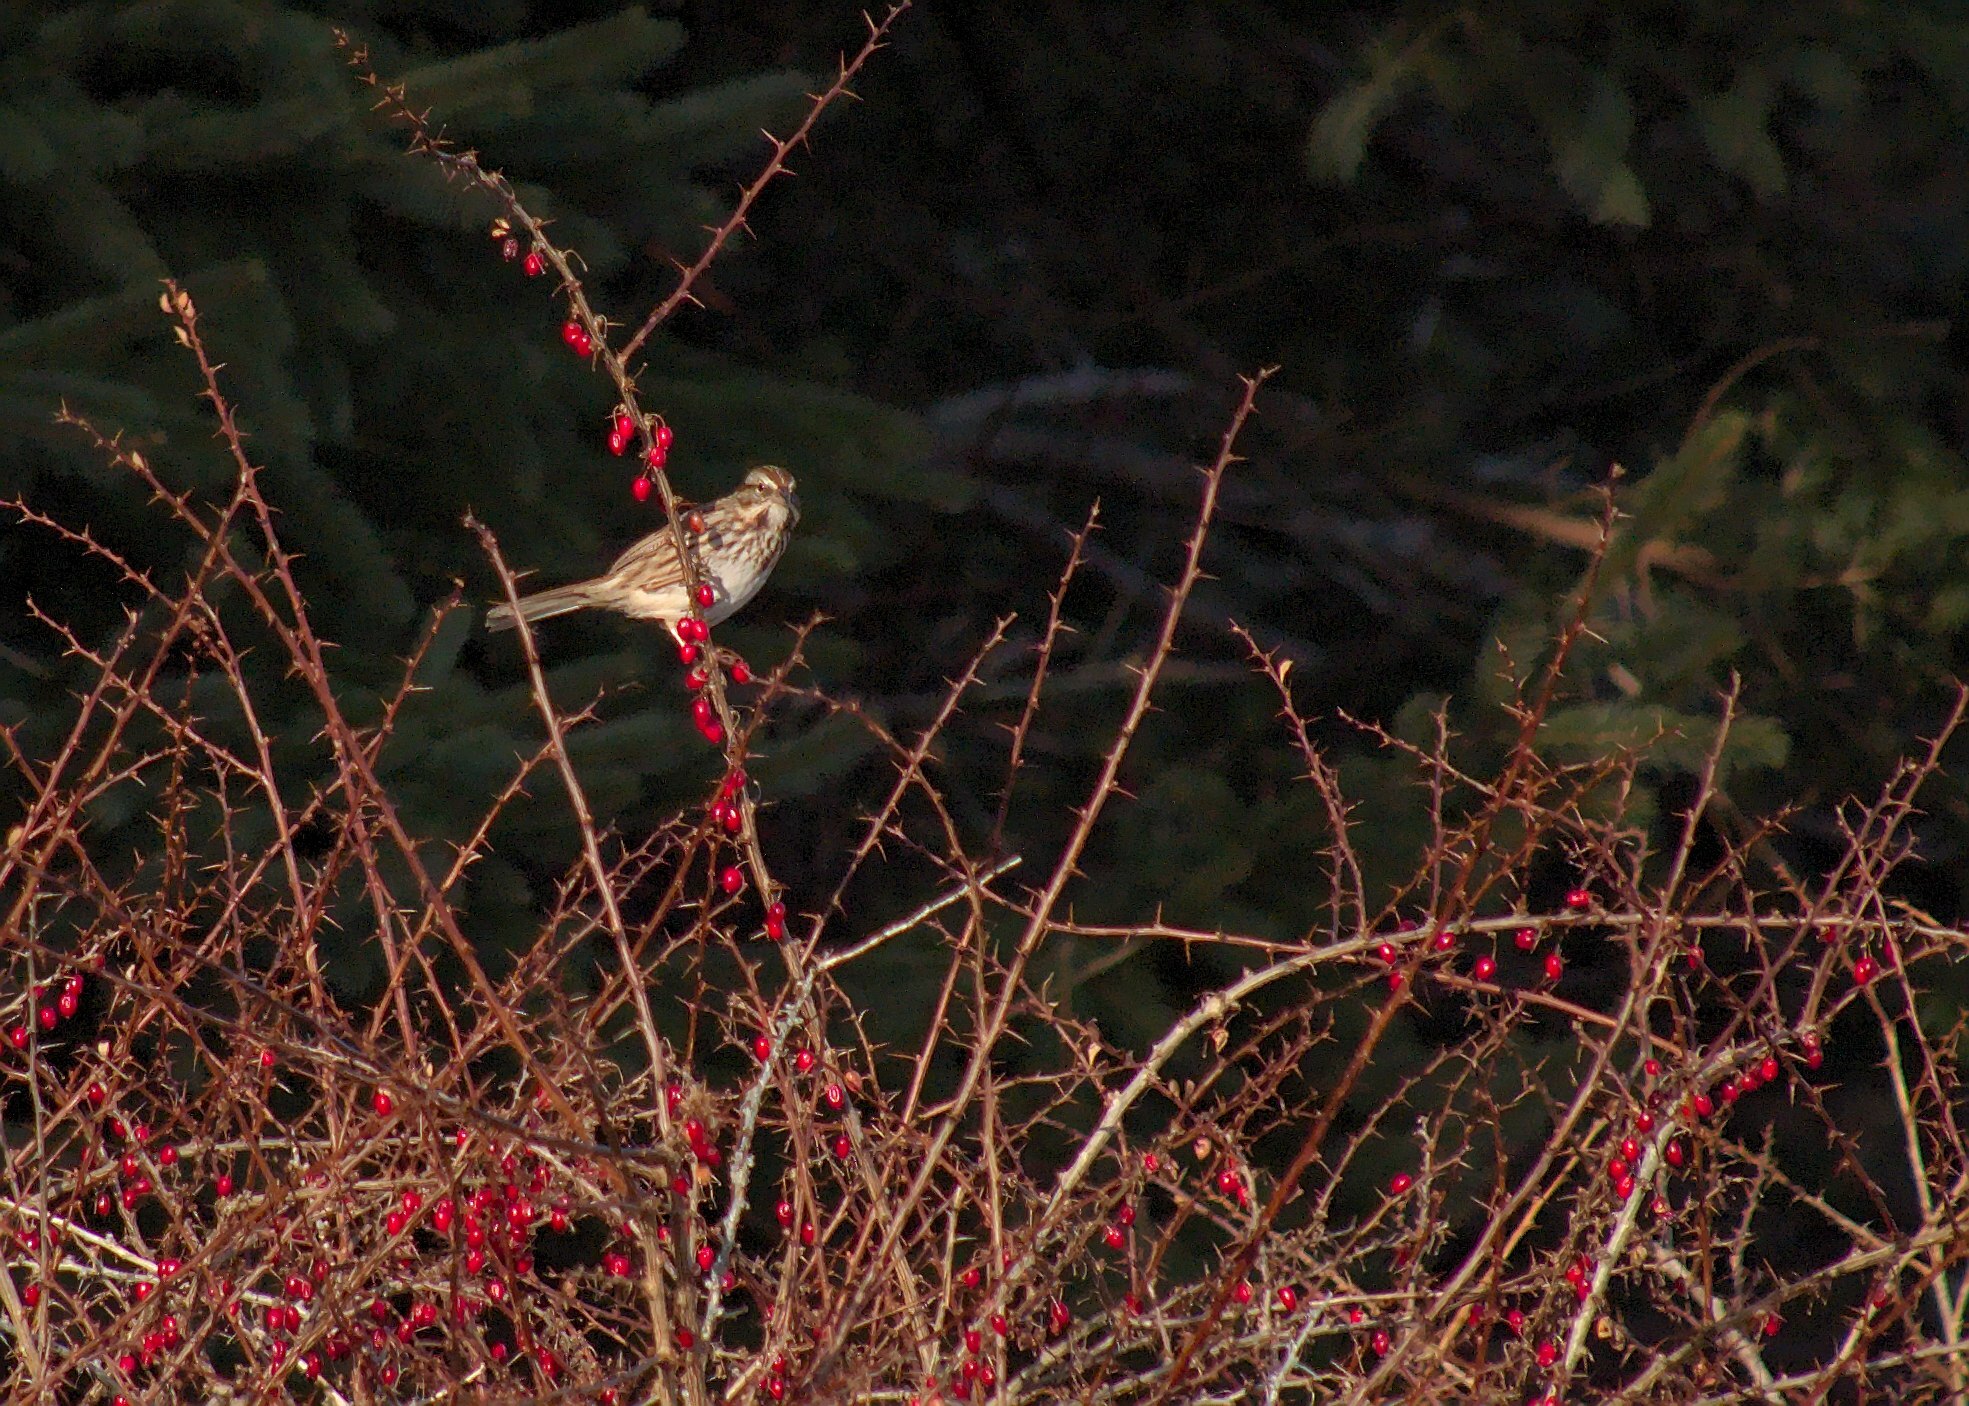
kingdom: Animalia
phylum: Chordata
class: Aves
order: Passeriformes
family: Passerellidae
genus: Melospiza
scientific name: Melospiza melodia
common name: Song sparrow
